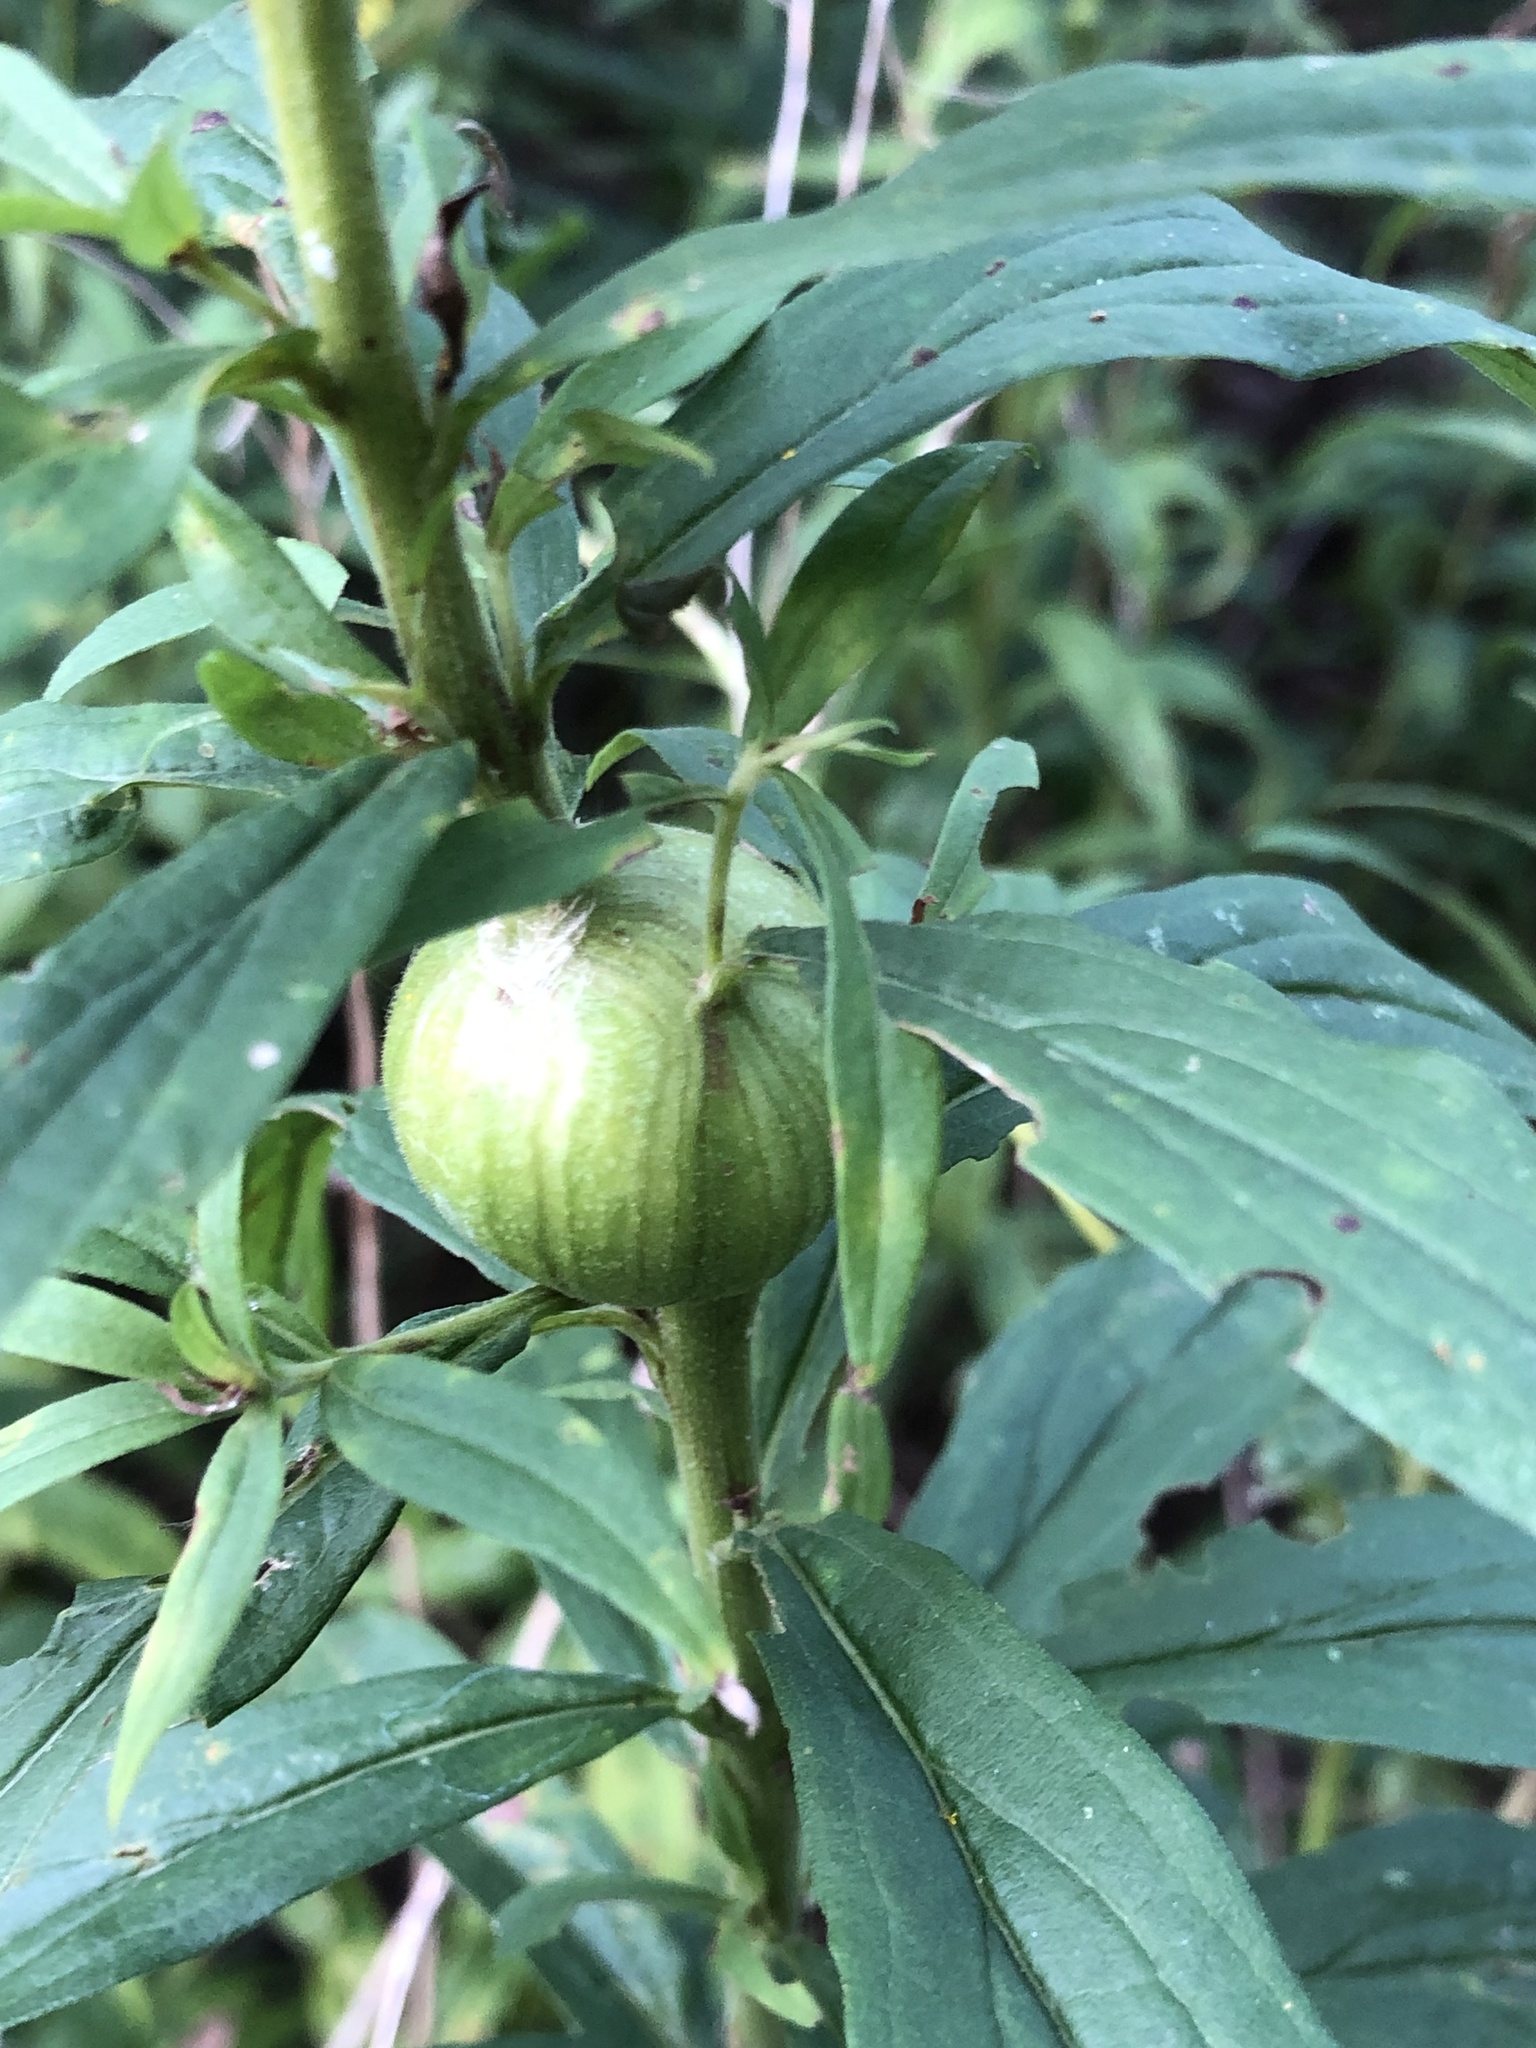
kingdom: Animalia
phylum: Arthropoda
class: Insecta
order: Diptera
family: Tephritidae
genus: Eurosta
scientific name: Eurosta solidaginis
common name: Goldenrod gall fly
